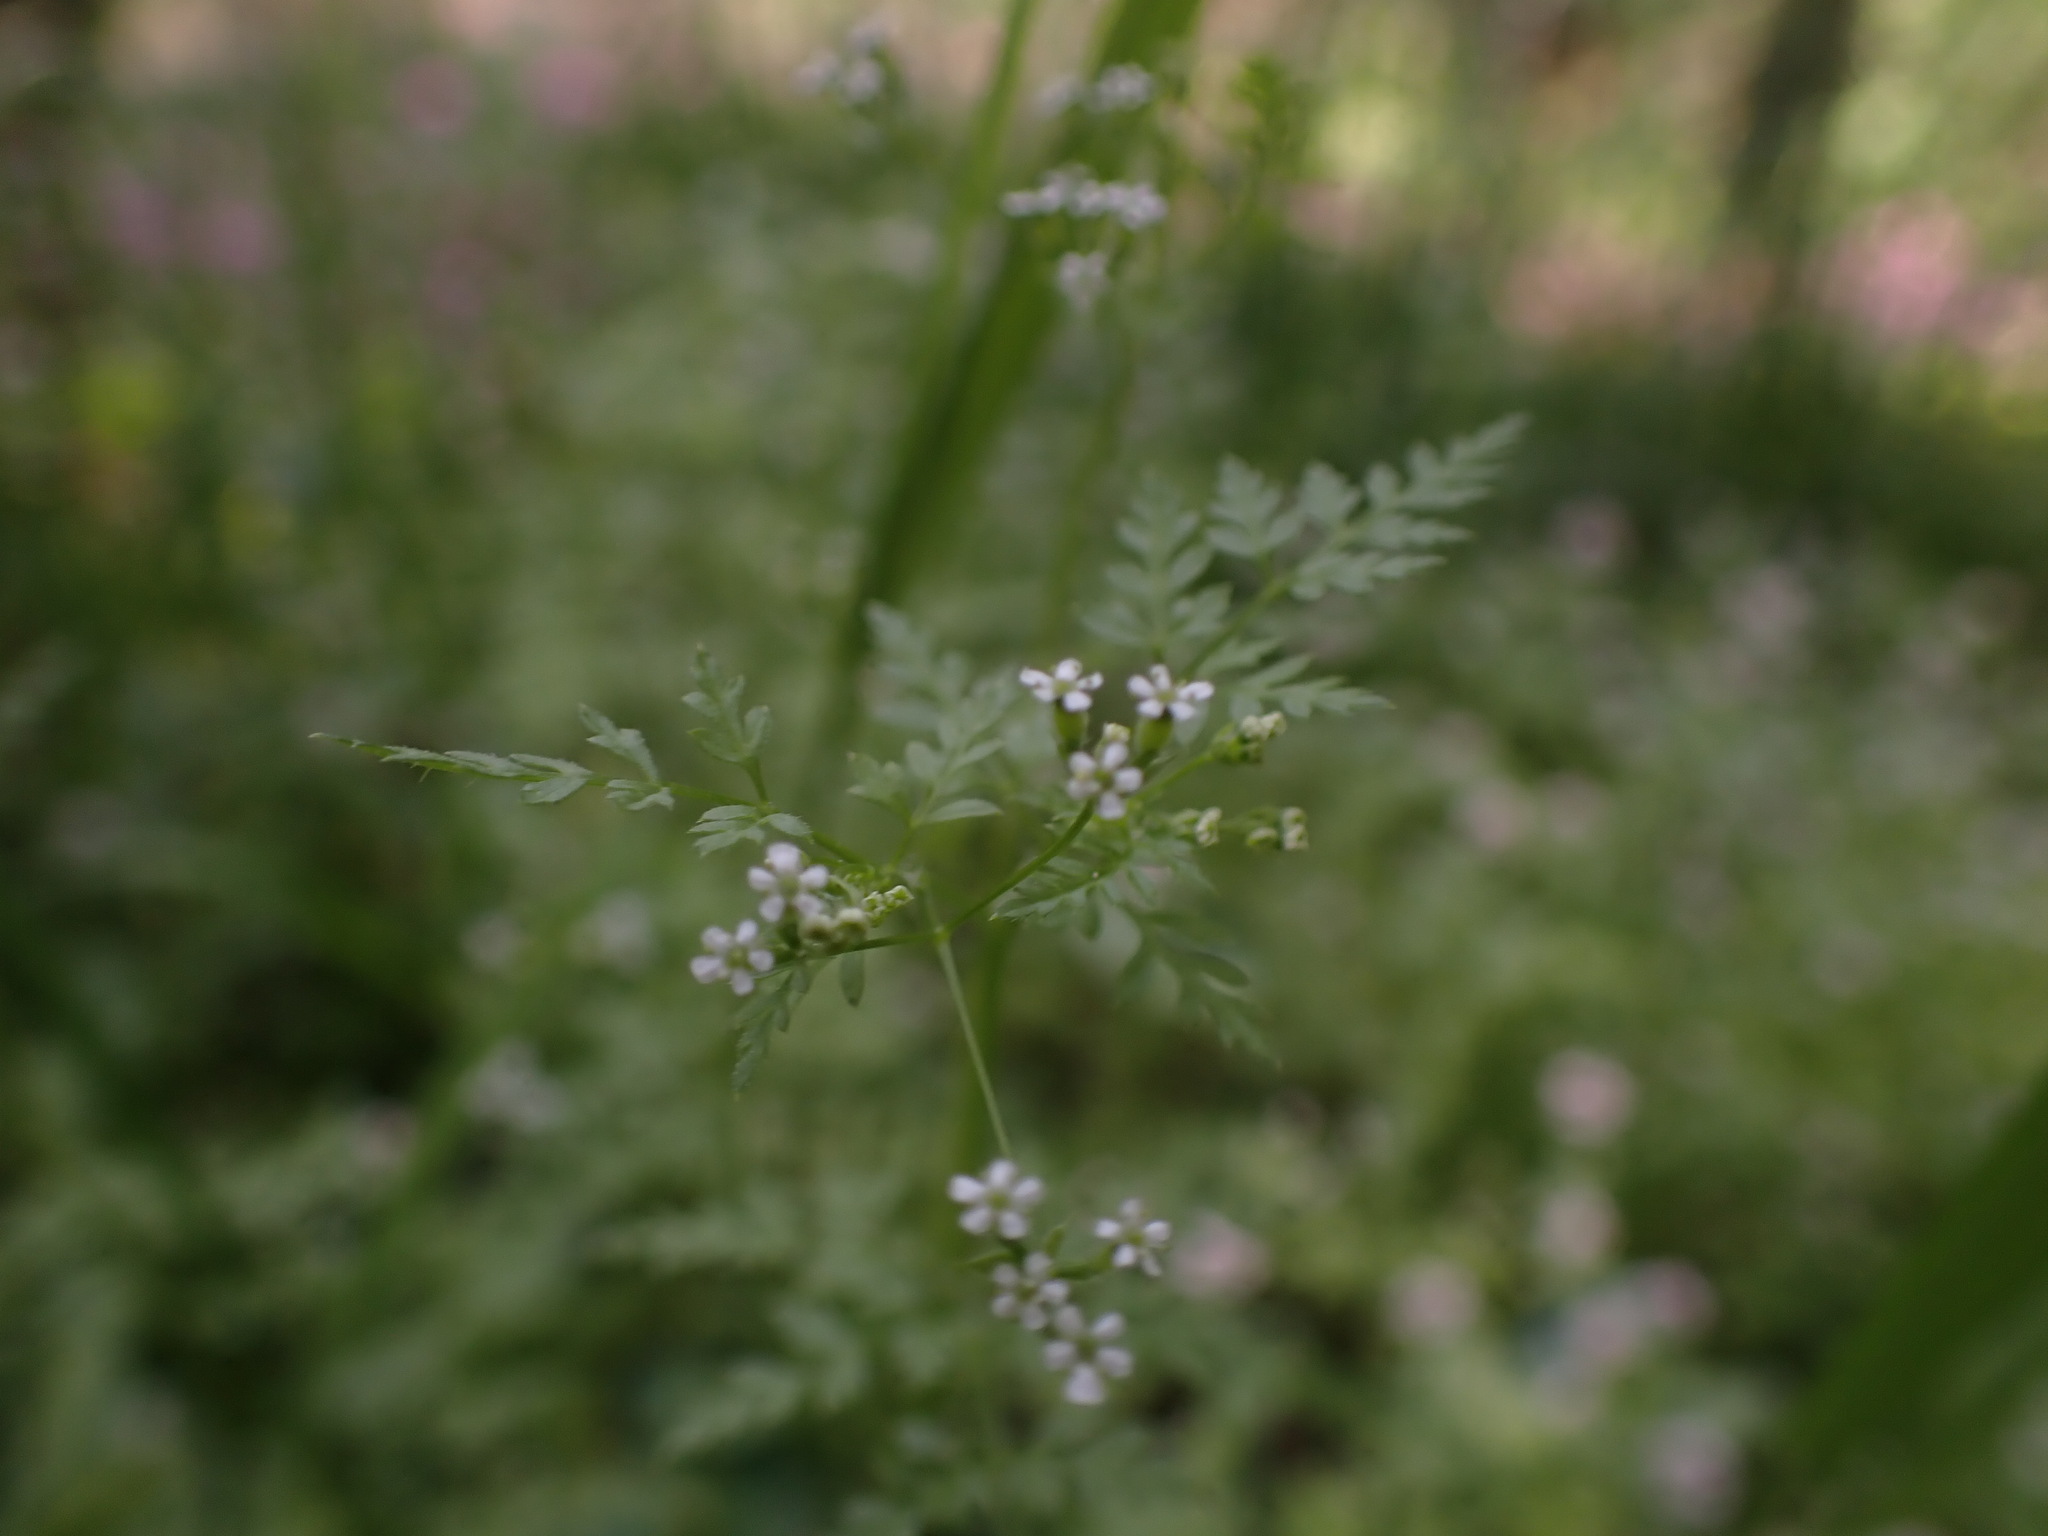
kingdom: Plantae
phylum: Tracheophyta
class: Magnoliopsida
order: Apiales
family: Apiaceae
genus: Anthriscus
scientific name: Anthriscus caucalis
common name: Bur chervil
